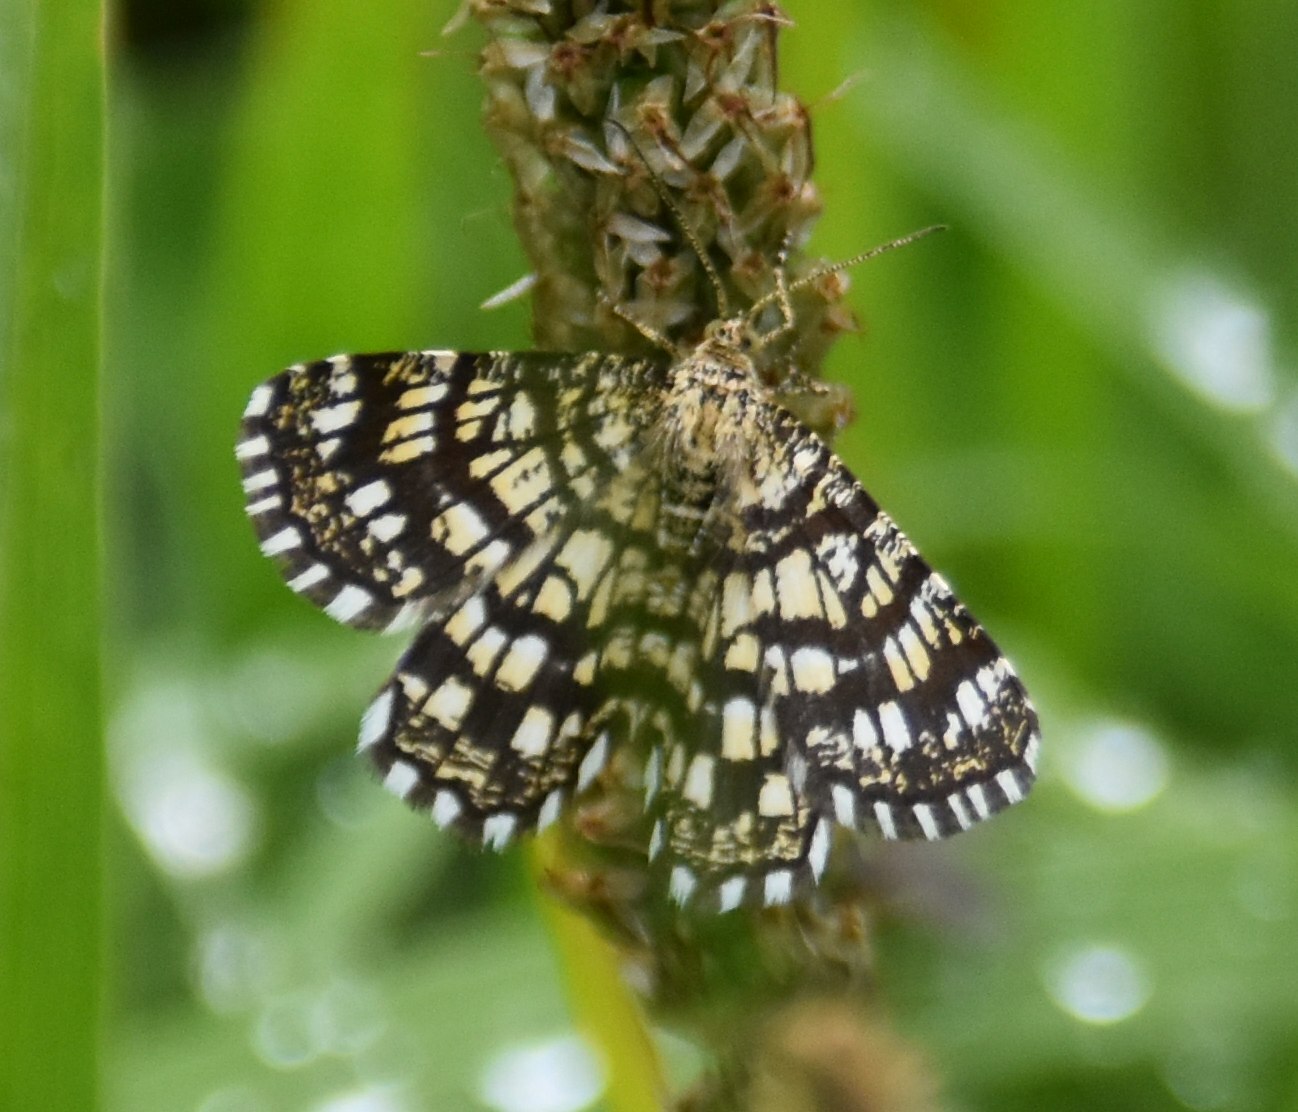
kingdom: Animalia
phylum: Arthropoda
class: Insecta
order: Lepidoptera
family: Geometridae
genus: Chiasmia
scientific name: Chiasmia clathrata
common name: Latticed heath
